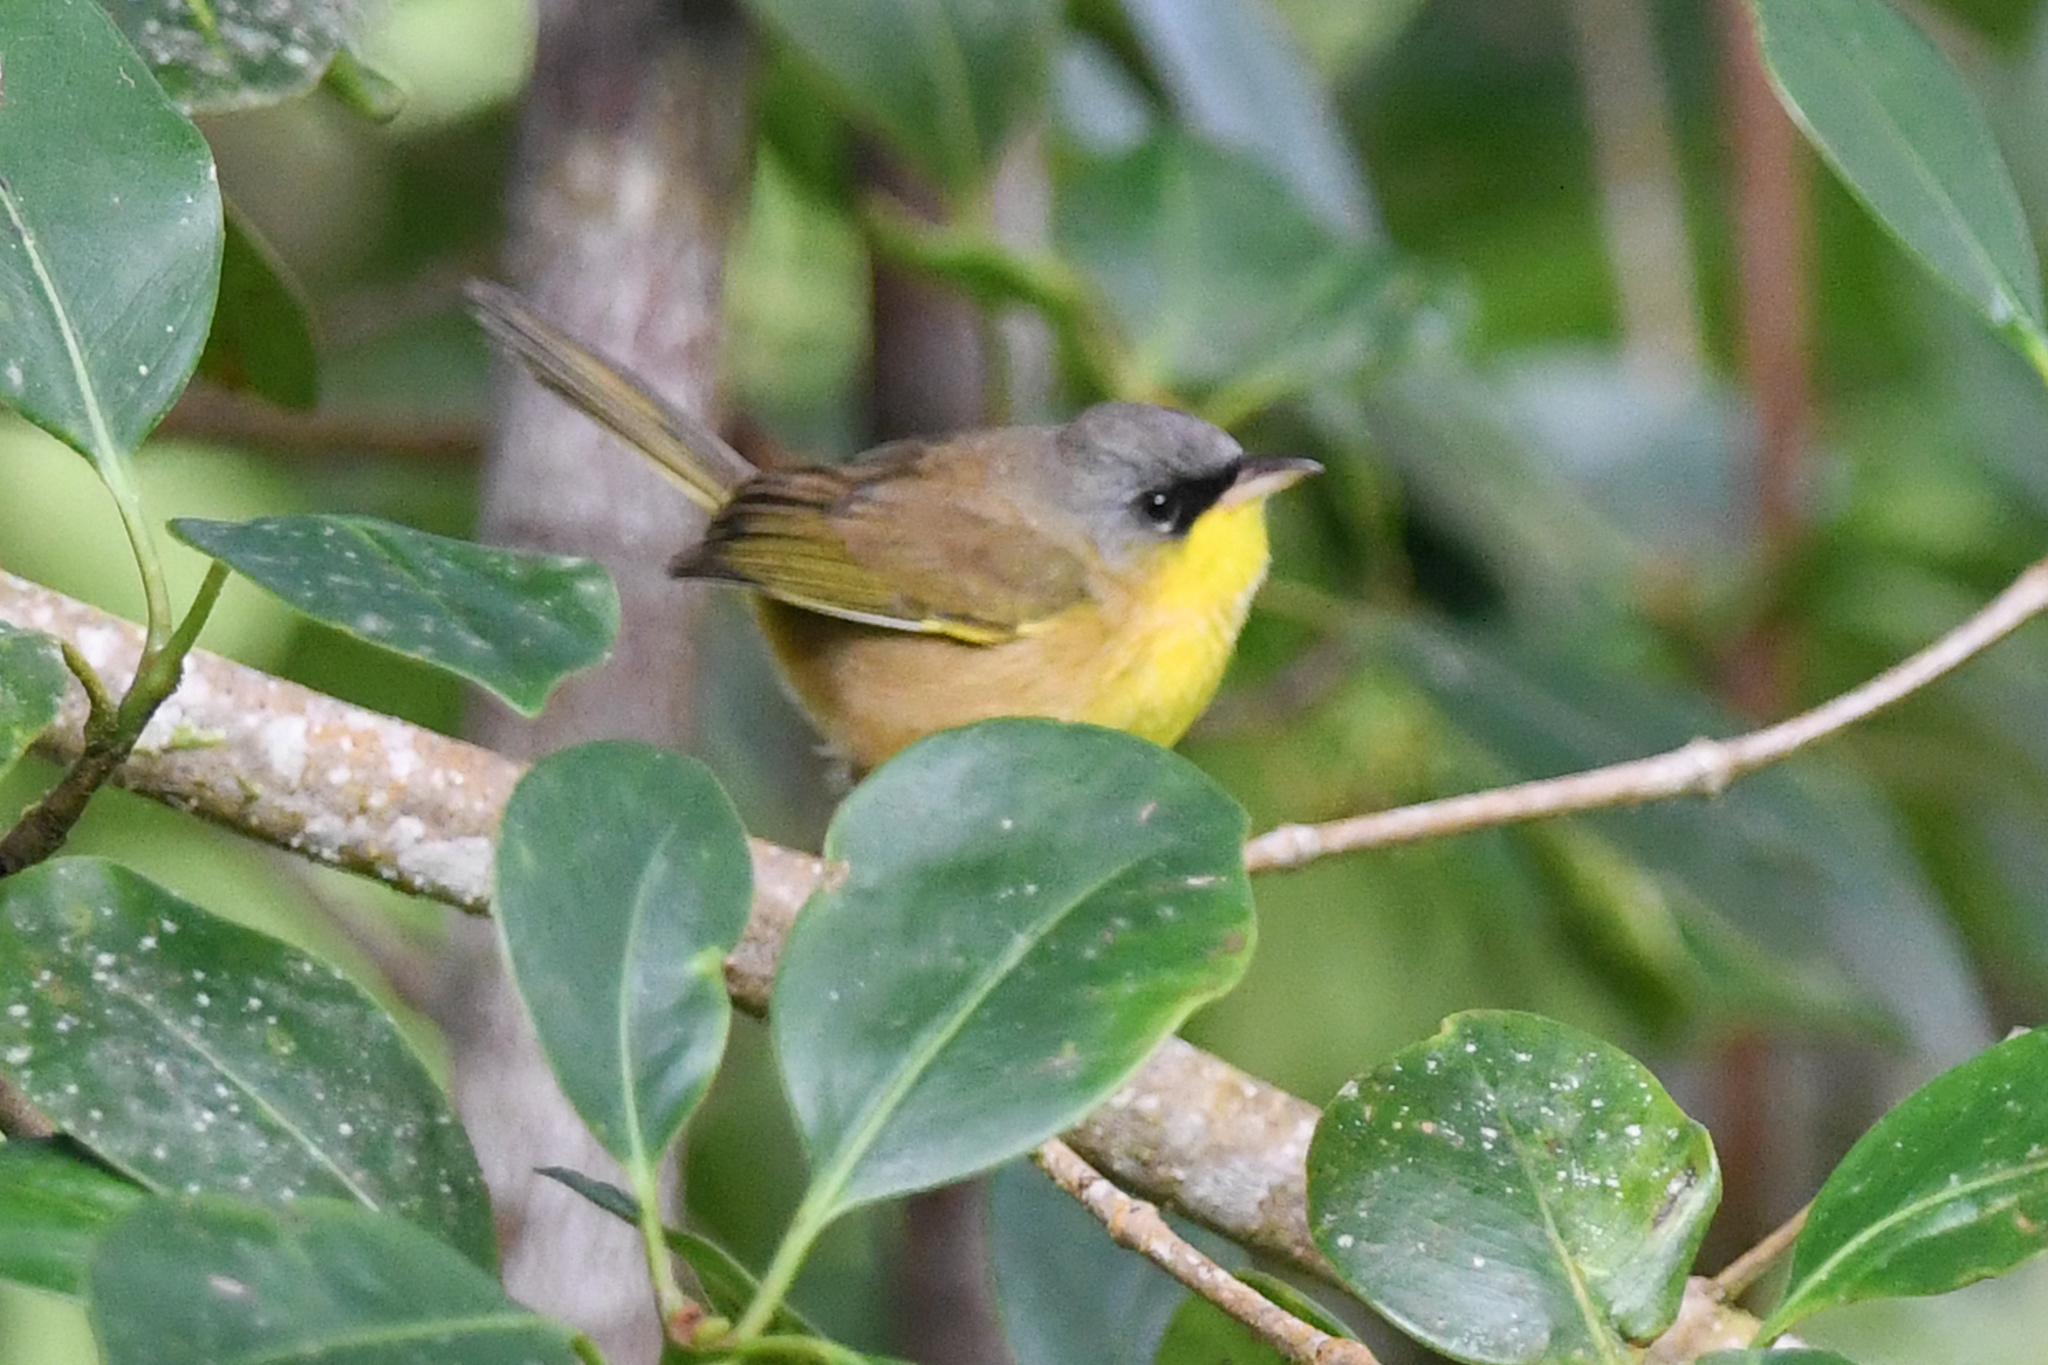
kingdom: Animalia
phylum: Chordata
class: Aves
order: Passeriformes
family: Parulidae
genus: Geothlypis
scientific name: Geothlypis poliocephala
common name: Gray-crowned yellowthroat
